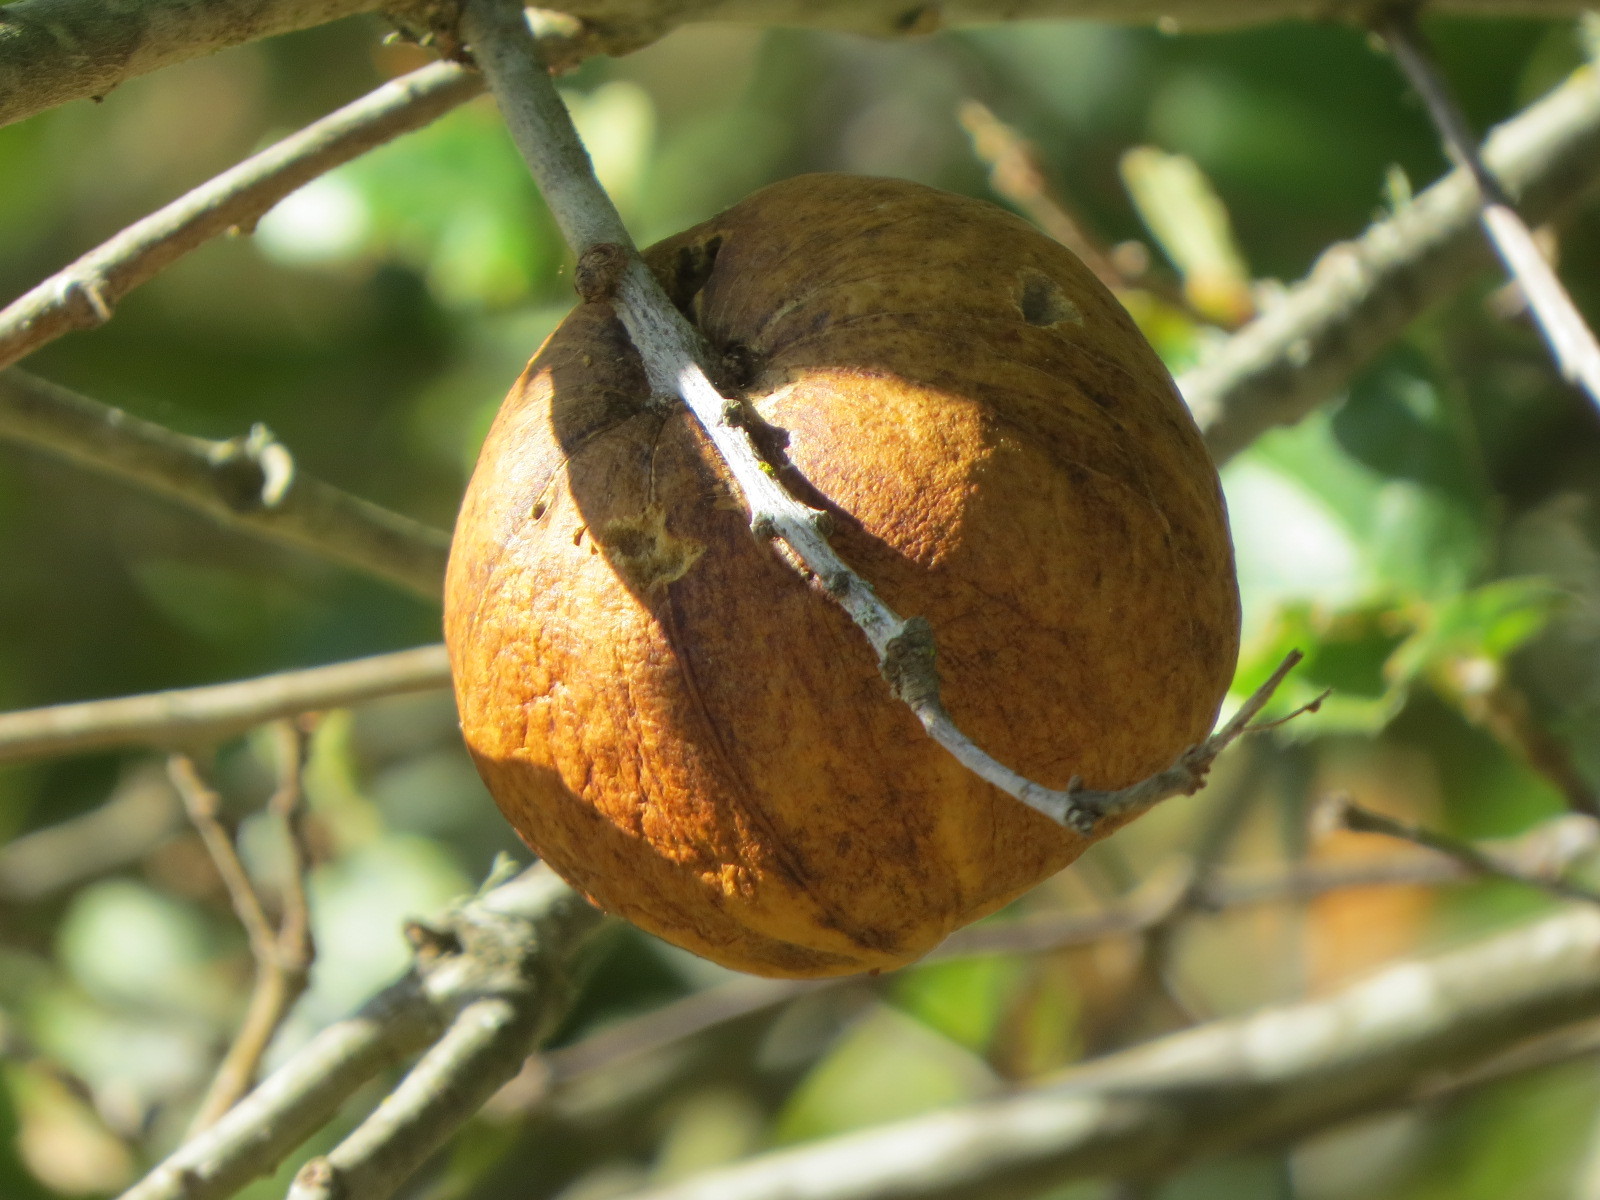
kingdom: Animalia
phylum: Arthropoda
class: Insecta
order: Hymenoptera
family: Cynipidae
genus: Amphibolips
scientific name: Amphibolips quercuspomiformis
